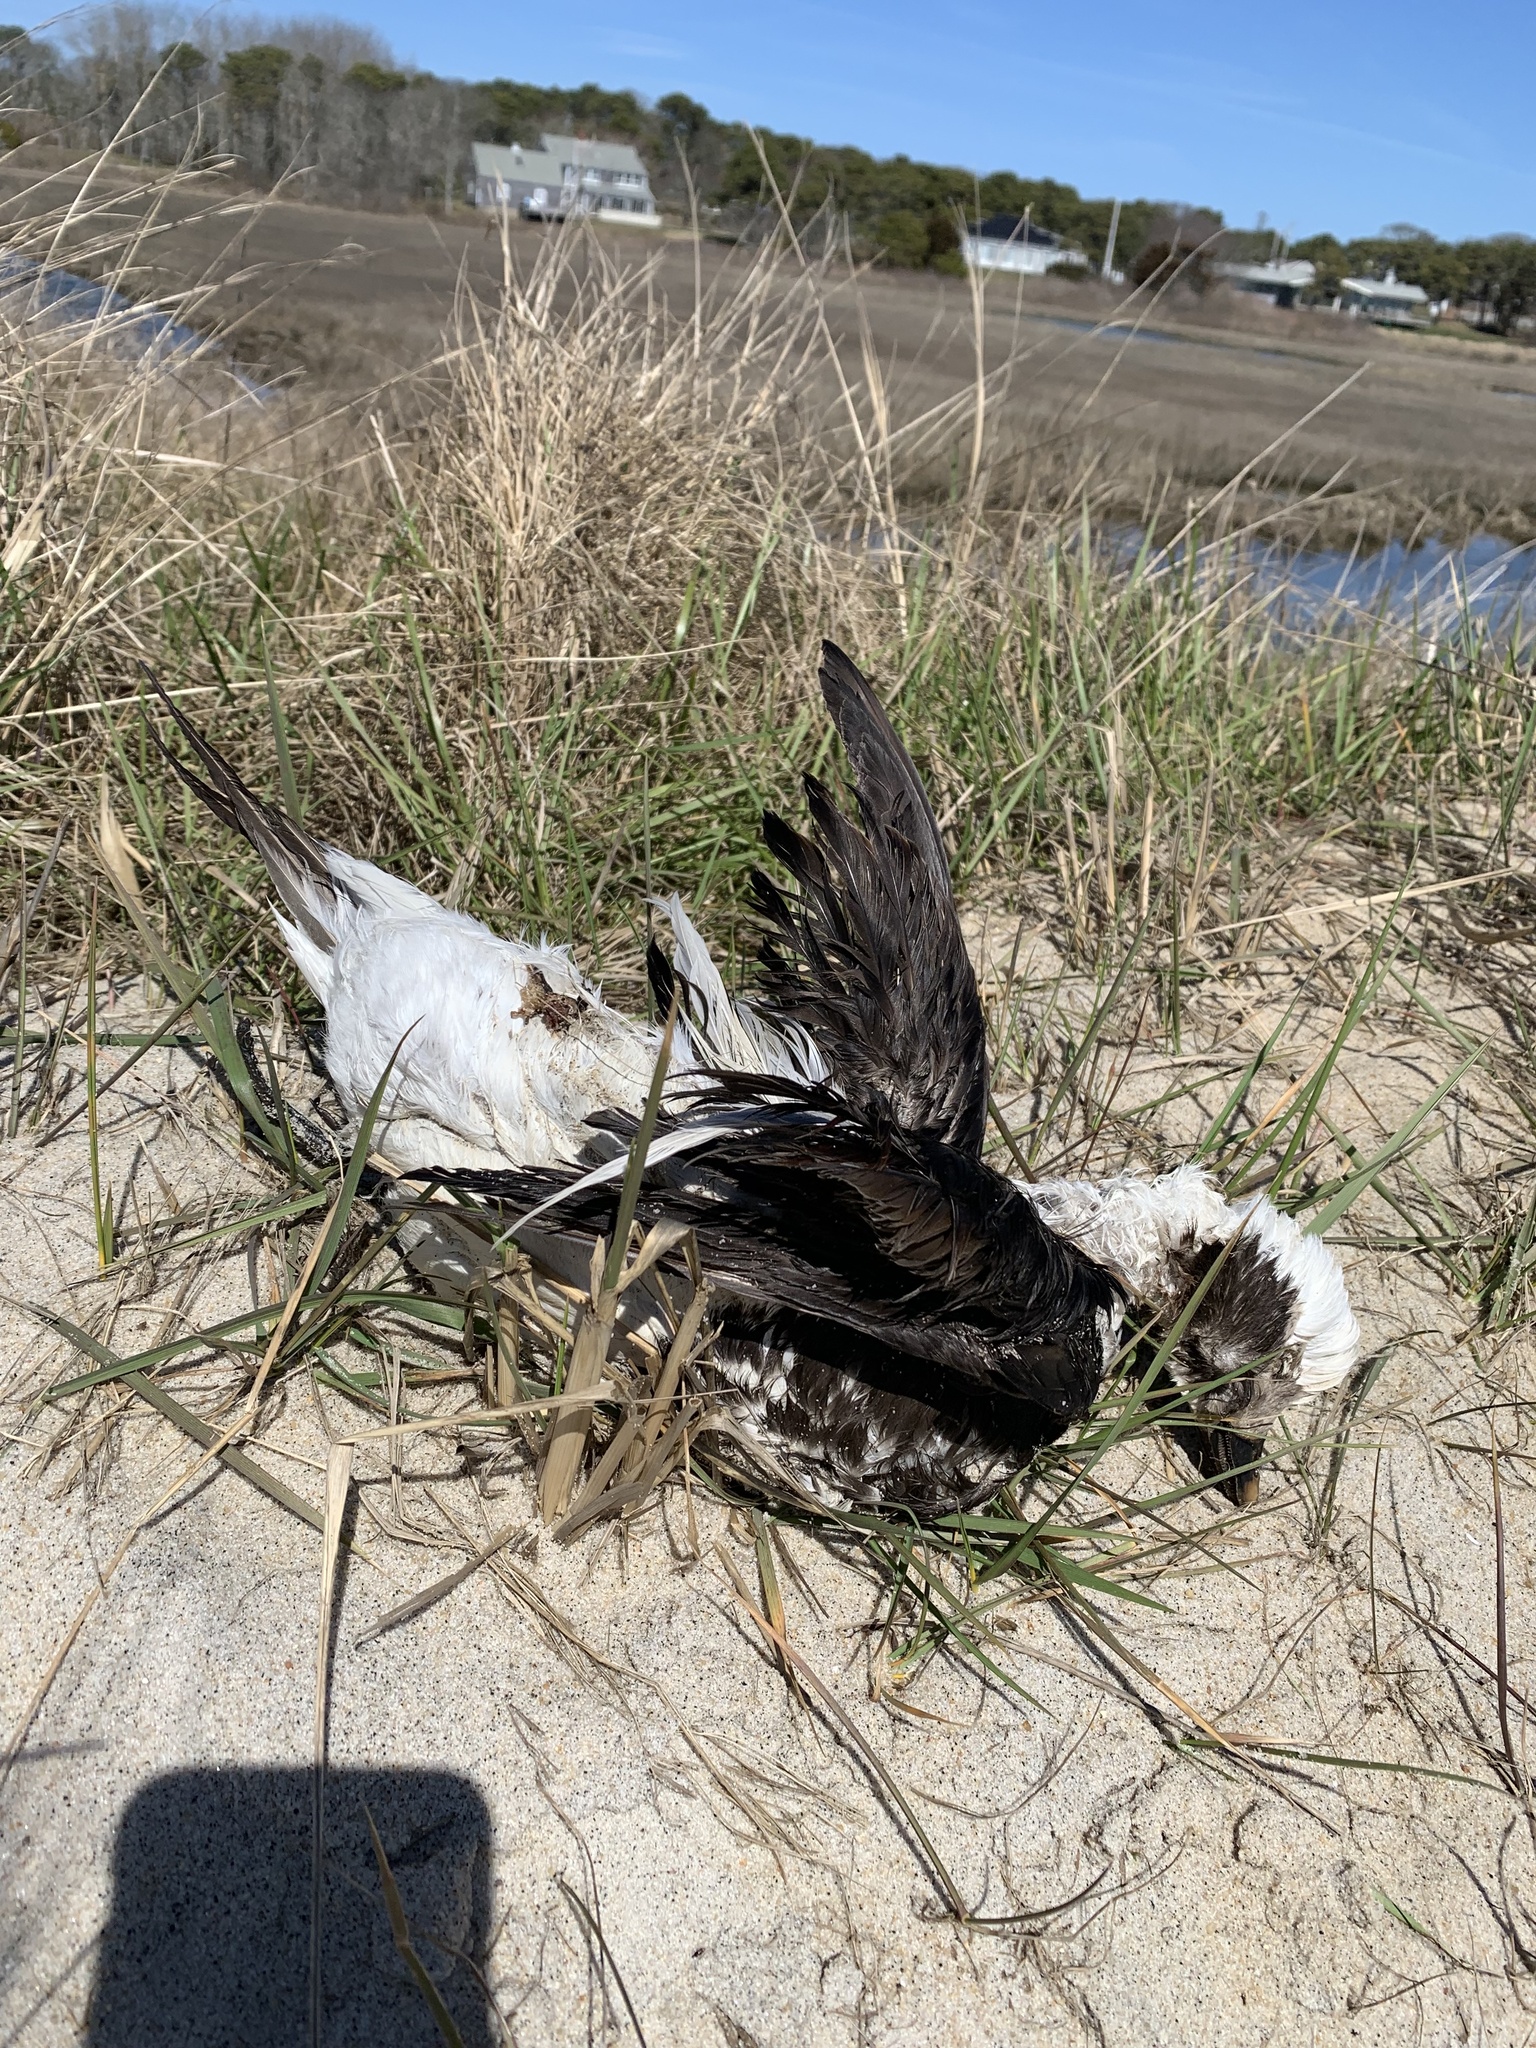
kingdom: Animalia
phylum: Chordata
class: Aves
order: Anseriformes
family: Anatidae
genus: Clangula
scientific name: Clangula hyemalis
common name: Long-tailed duck
